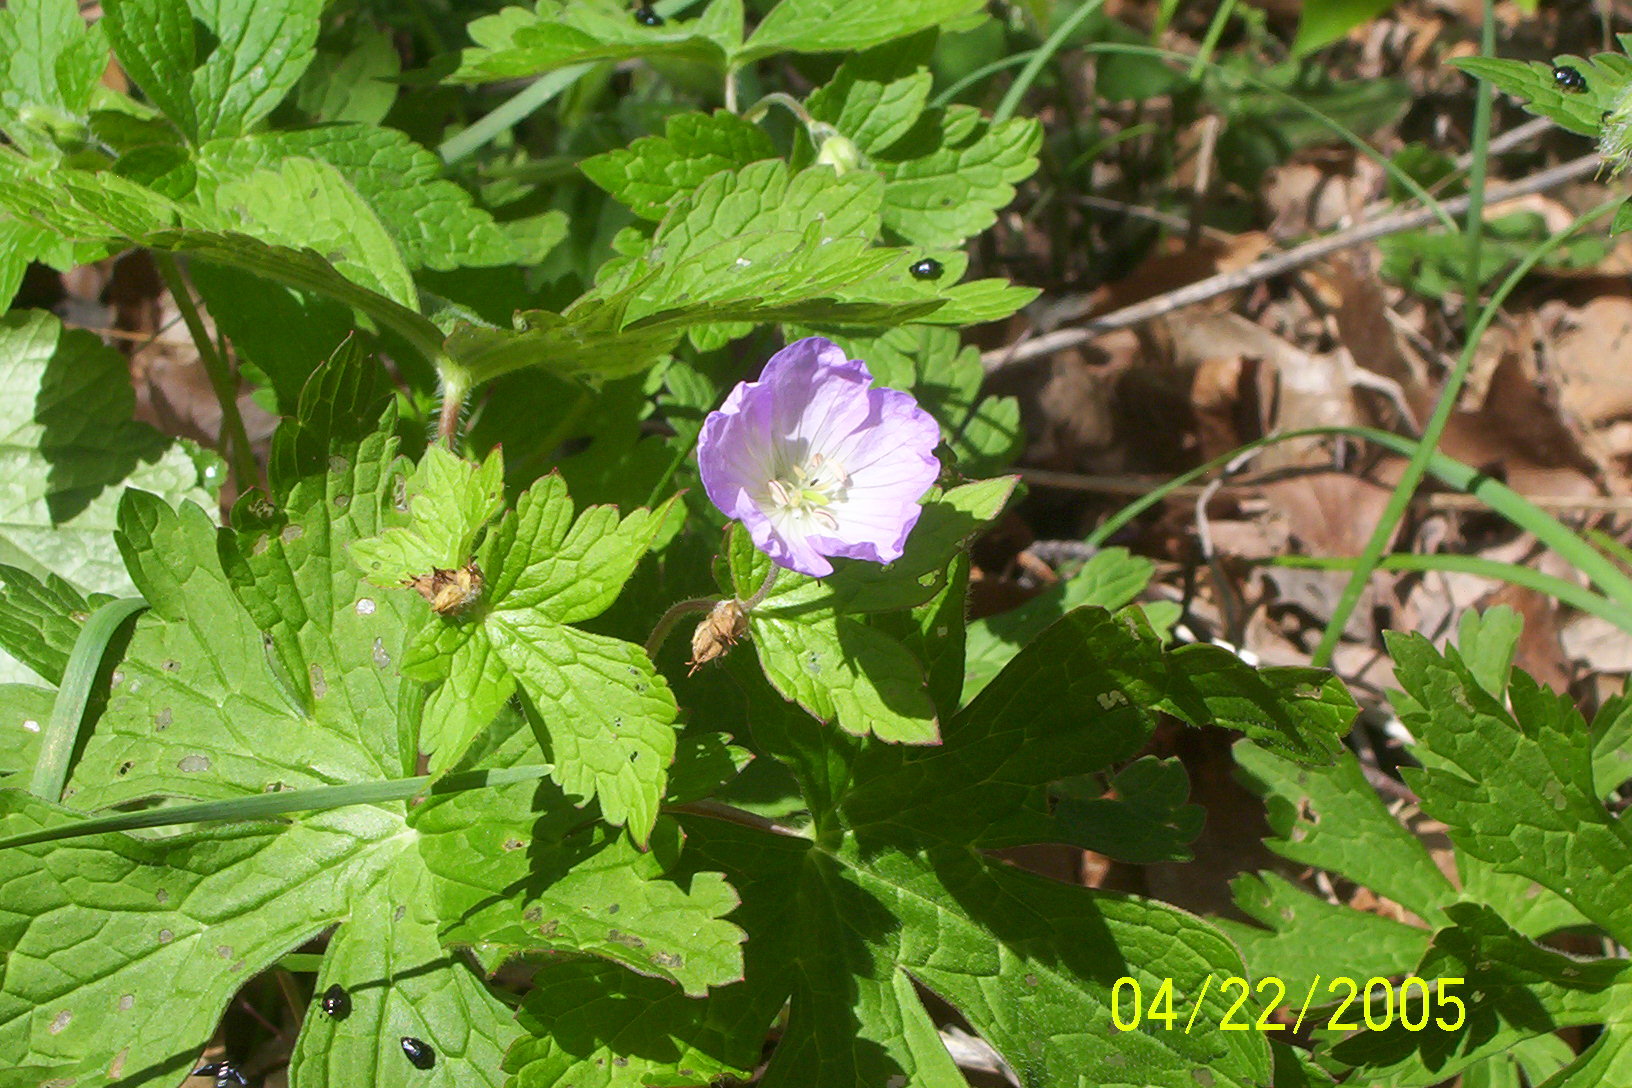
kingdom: Plantae
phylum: Tracheophyta
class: Magnoliopsida
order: Geraniales
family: Geraniaceae
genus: Geranium
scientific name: Geranium maculatum
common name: Spotted geranium
